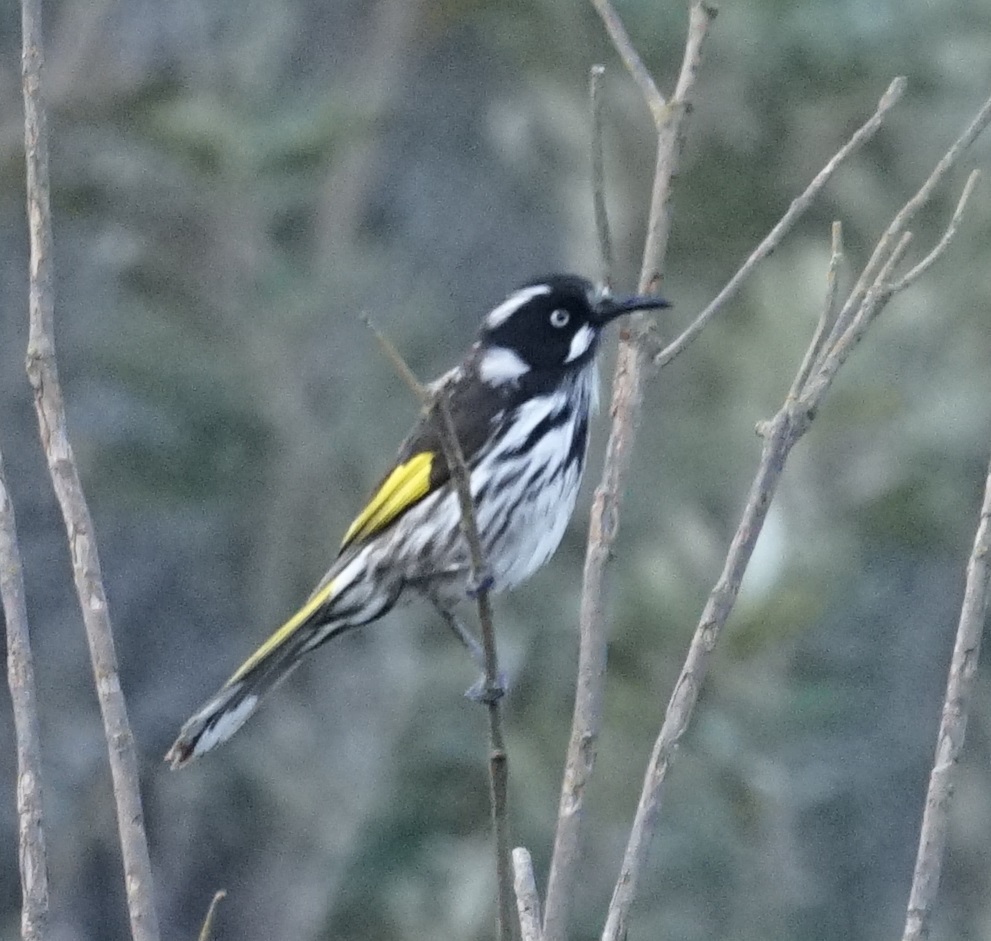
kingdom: Animalia
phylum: Chordata
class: Aves
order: Passeriformes
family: Meliphagidae
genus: Phylidonyris
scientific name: Phylidonyris novaehollandiae
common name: New holland honeyeater
